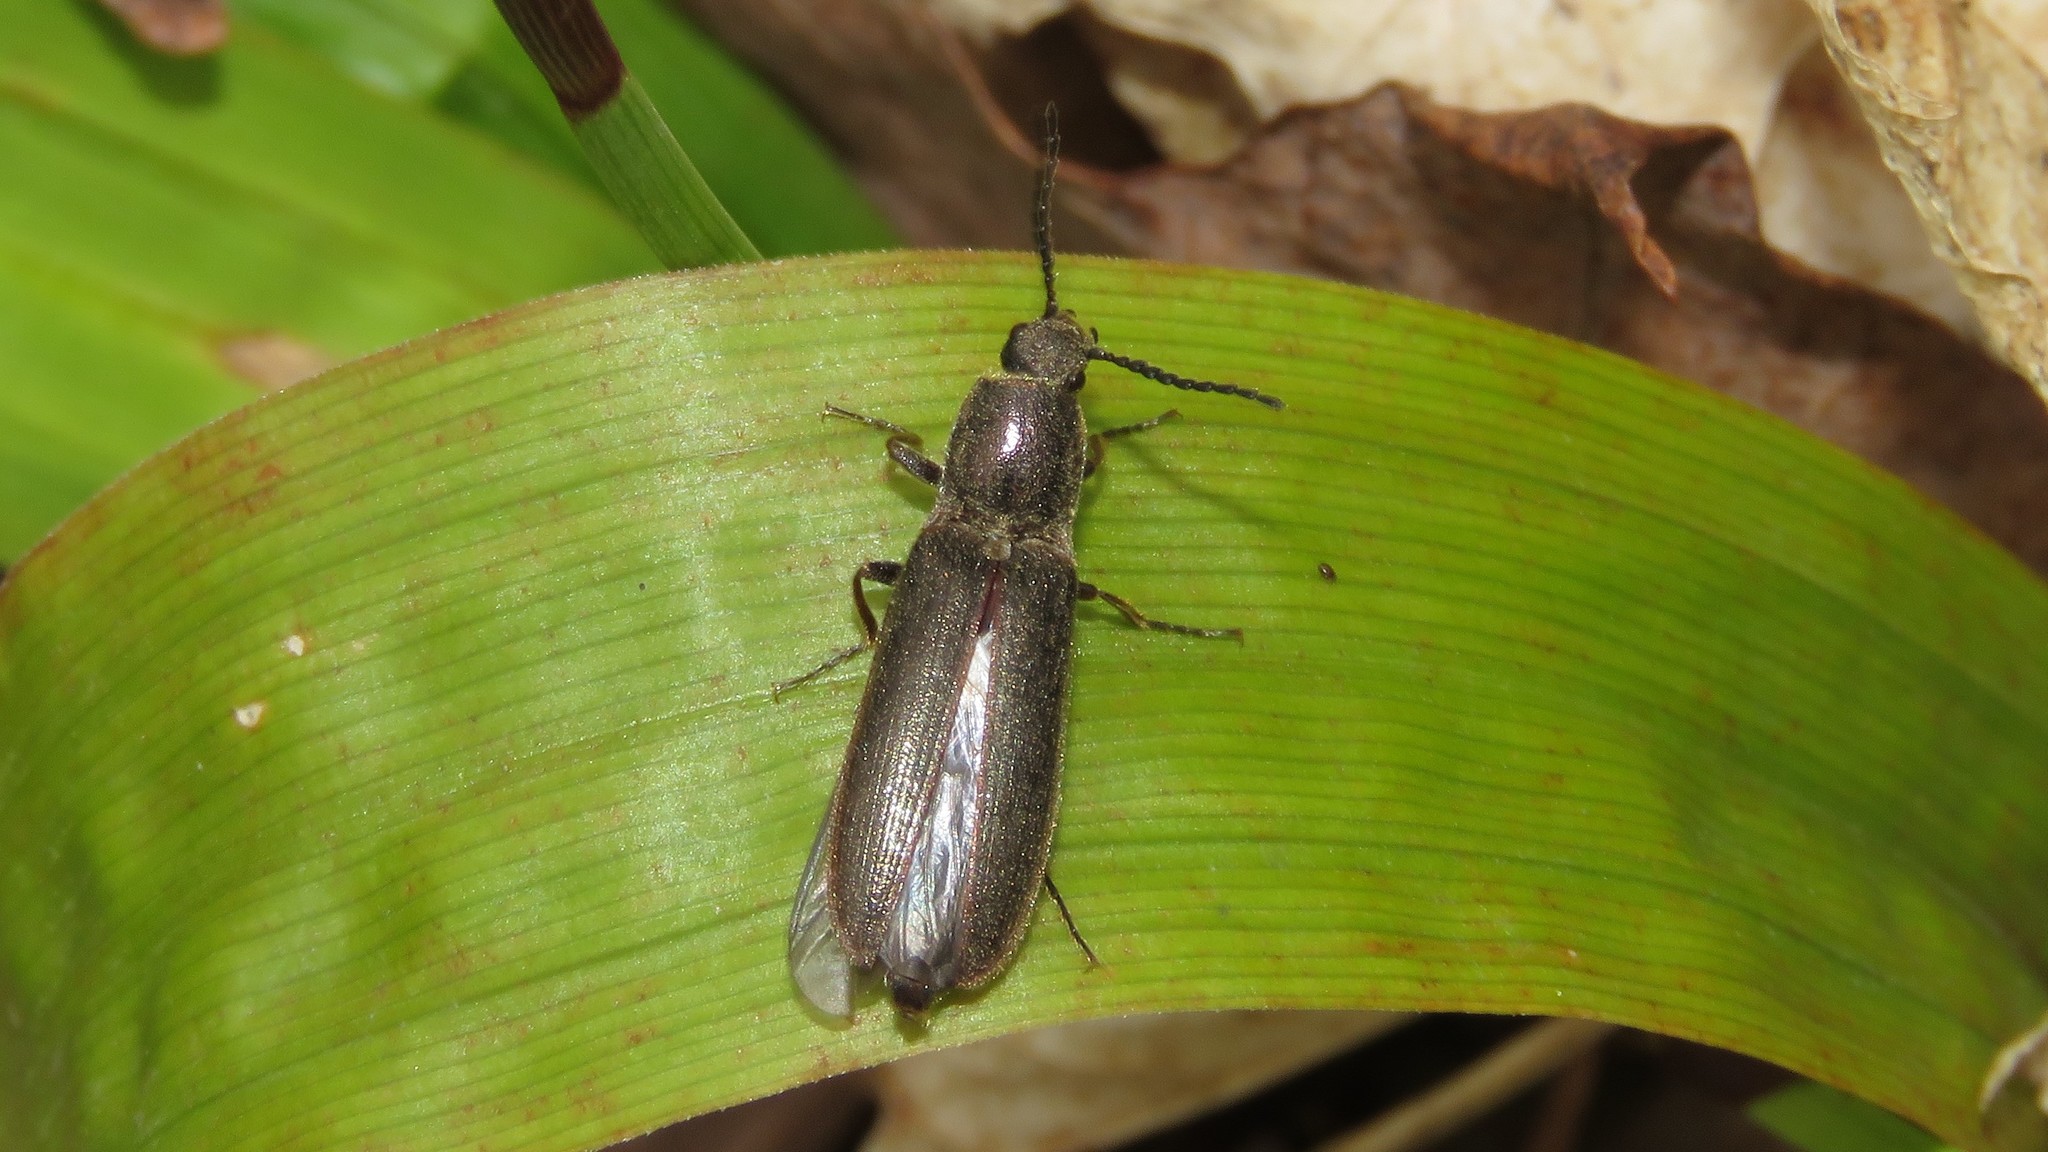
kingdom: Animalia
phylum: Arthropoda
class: Insecta
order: Coleoptera
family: Elateridae
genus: Sylvanelater
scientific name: Sylvanelater cylindriformis
